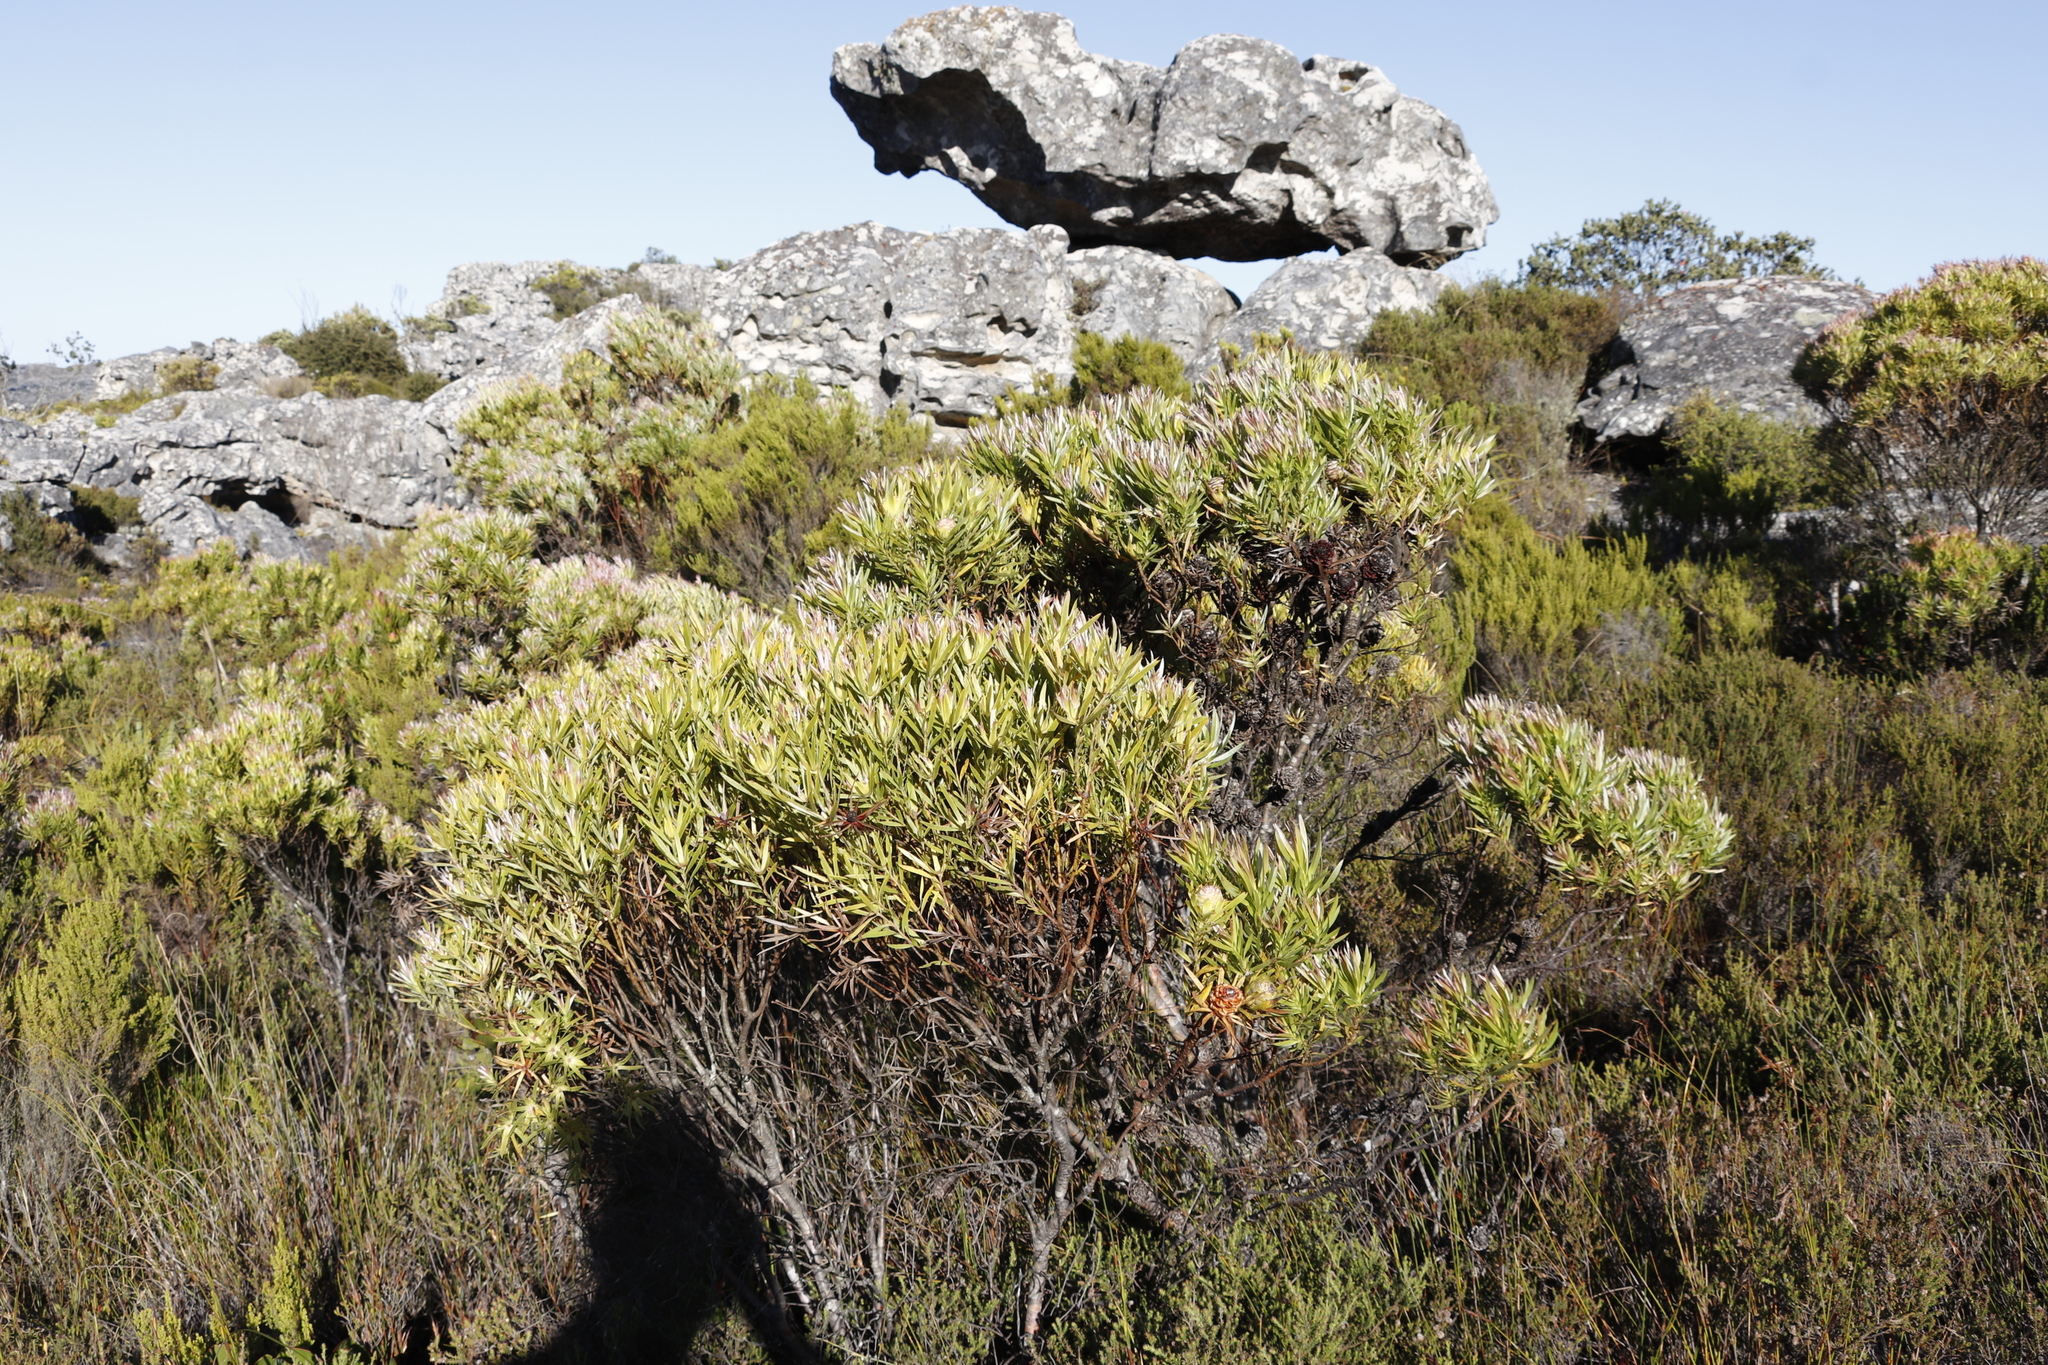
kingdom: Plantae
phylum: Tracheophyta
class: Magnoliopsida
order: Proteales
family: Proteaceae
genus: Leucadendron
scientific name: Leucadendron xanthoconus
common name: Sickle-leaf conebush
